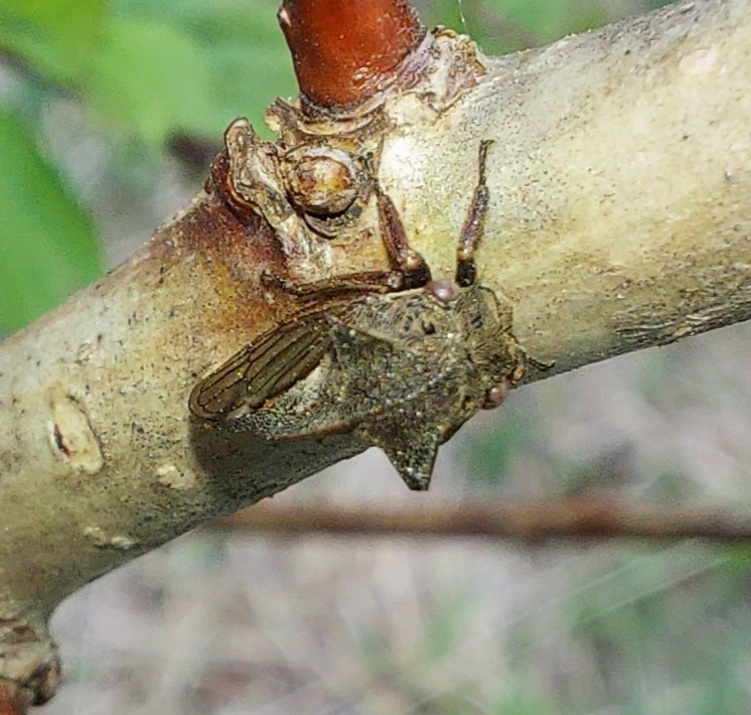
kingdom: Animalia
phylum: Arthropoda
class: Insecta
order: Hemiptera
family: Membracidae
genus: Centrotus
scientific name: Centrotus cornuta
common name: Treehopper
